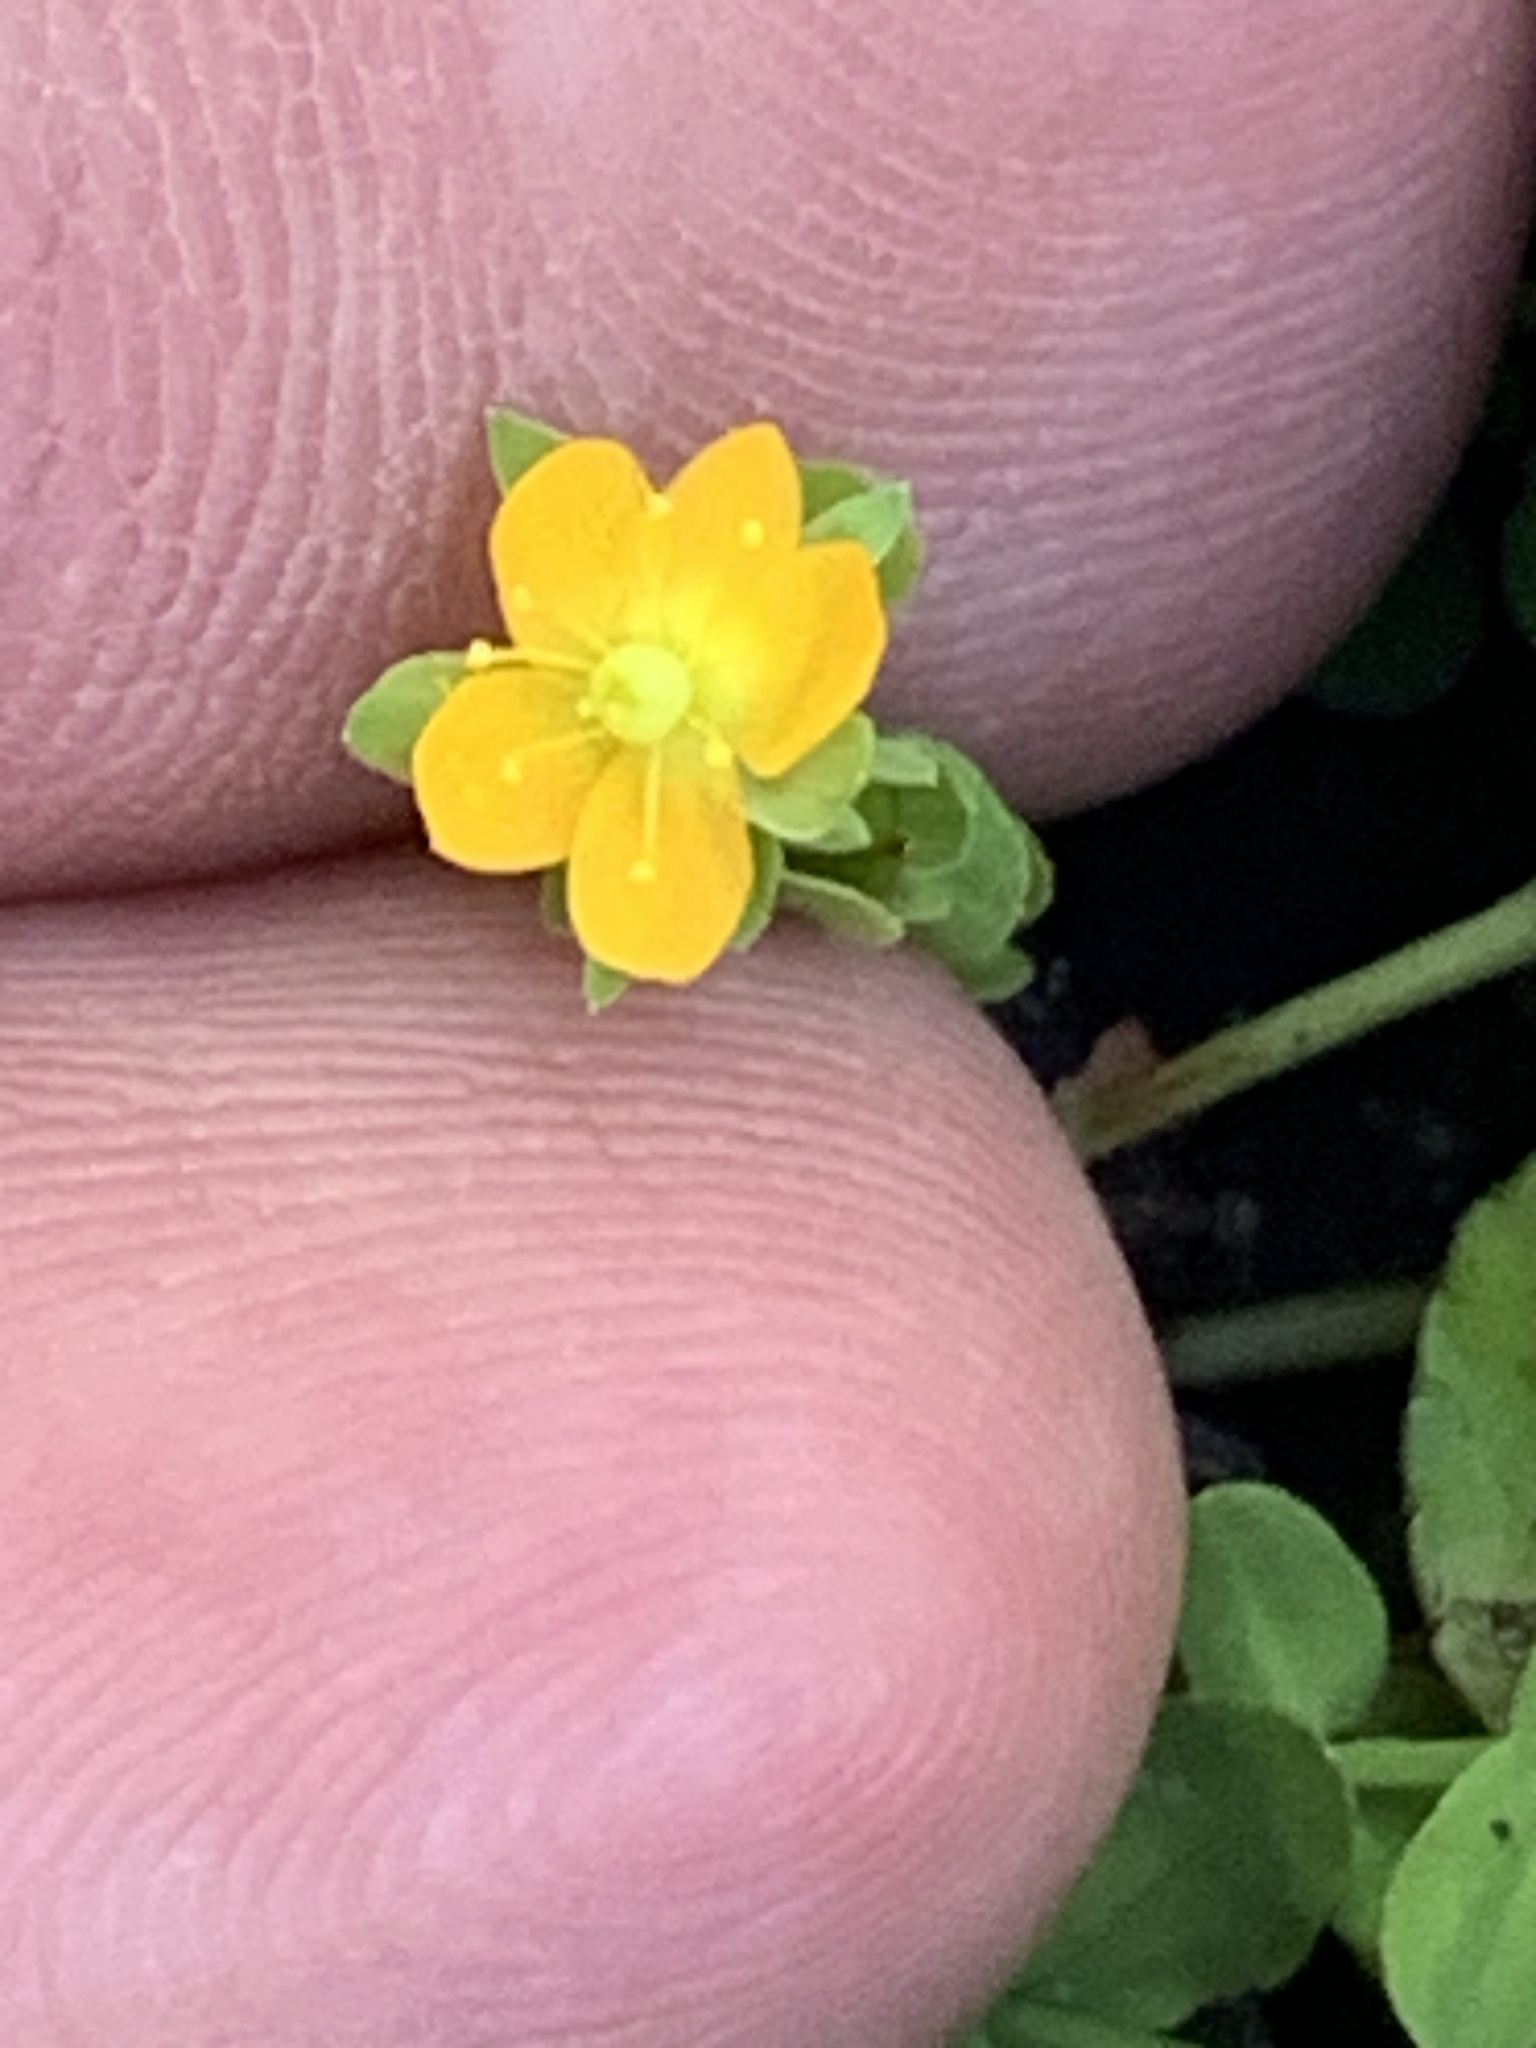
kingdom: Plantae
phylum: Tracheophyta
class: Magnoliopsida
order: Malpighiales
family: Hypericaceae
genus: Hypericum
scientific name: Hypericum japonicum
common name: Matted st. john's-wort
